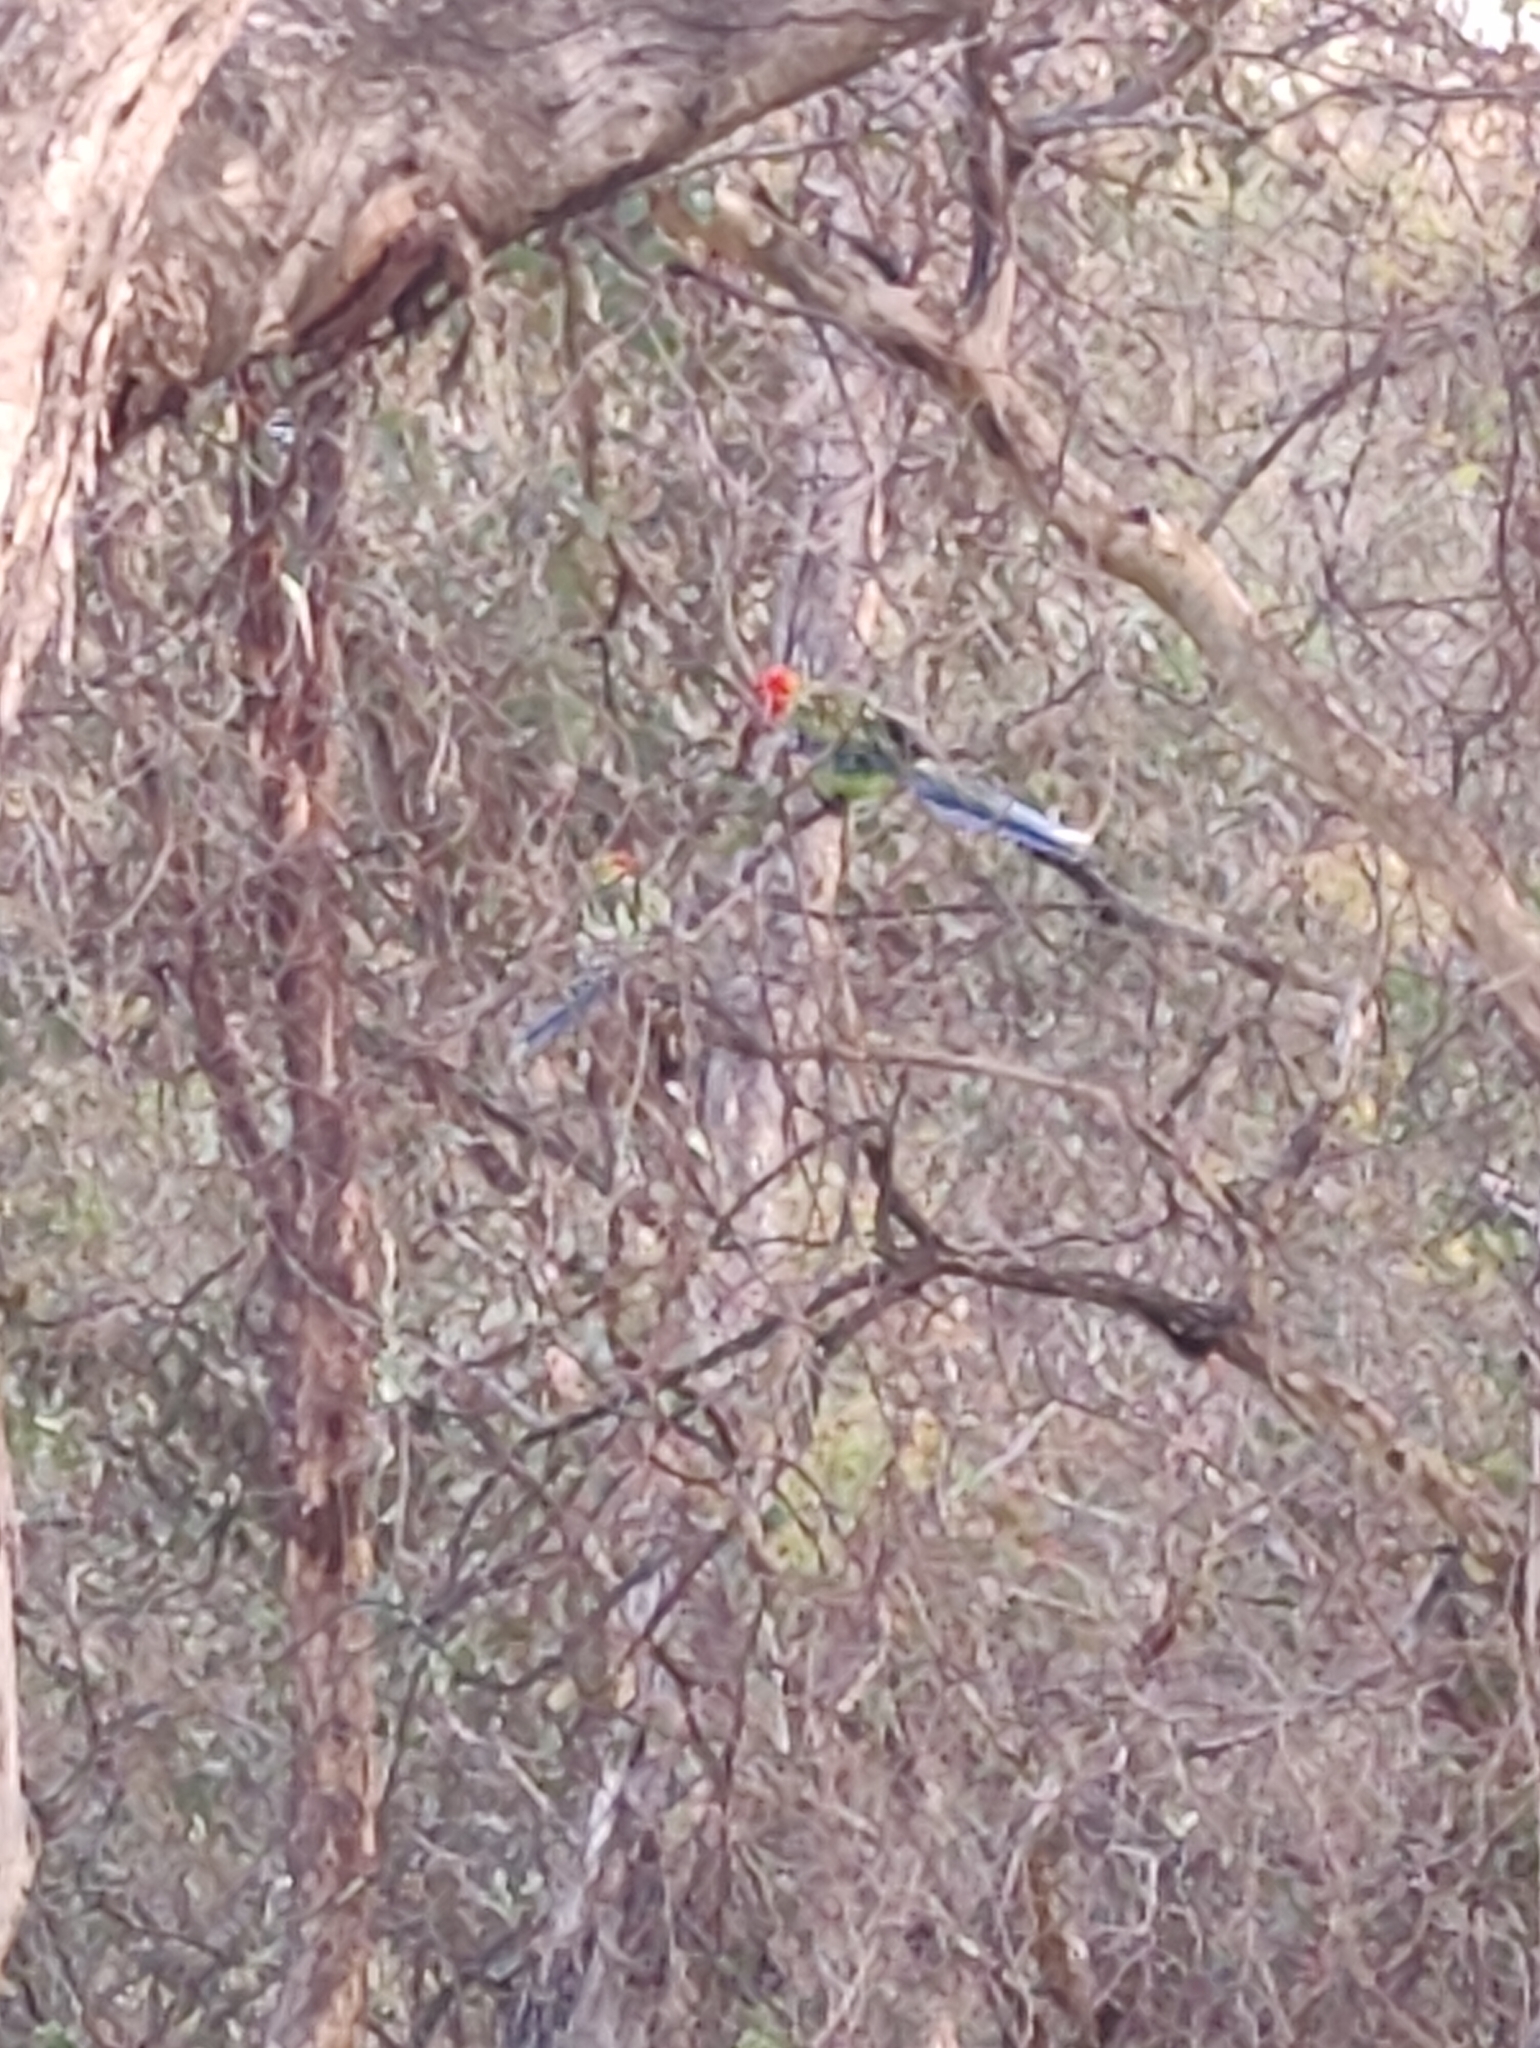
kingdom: Animalia
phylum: Chordata
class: Aves
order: Psittaciformes
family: Psittacidae
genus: Platycercus
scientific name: Platycercus eximius
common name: Eastern rosella
